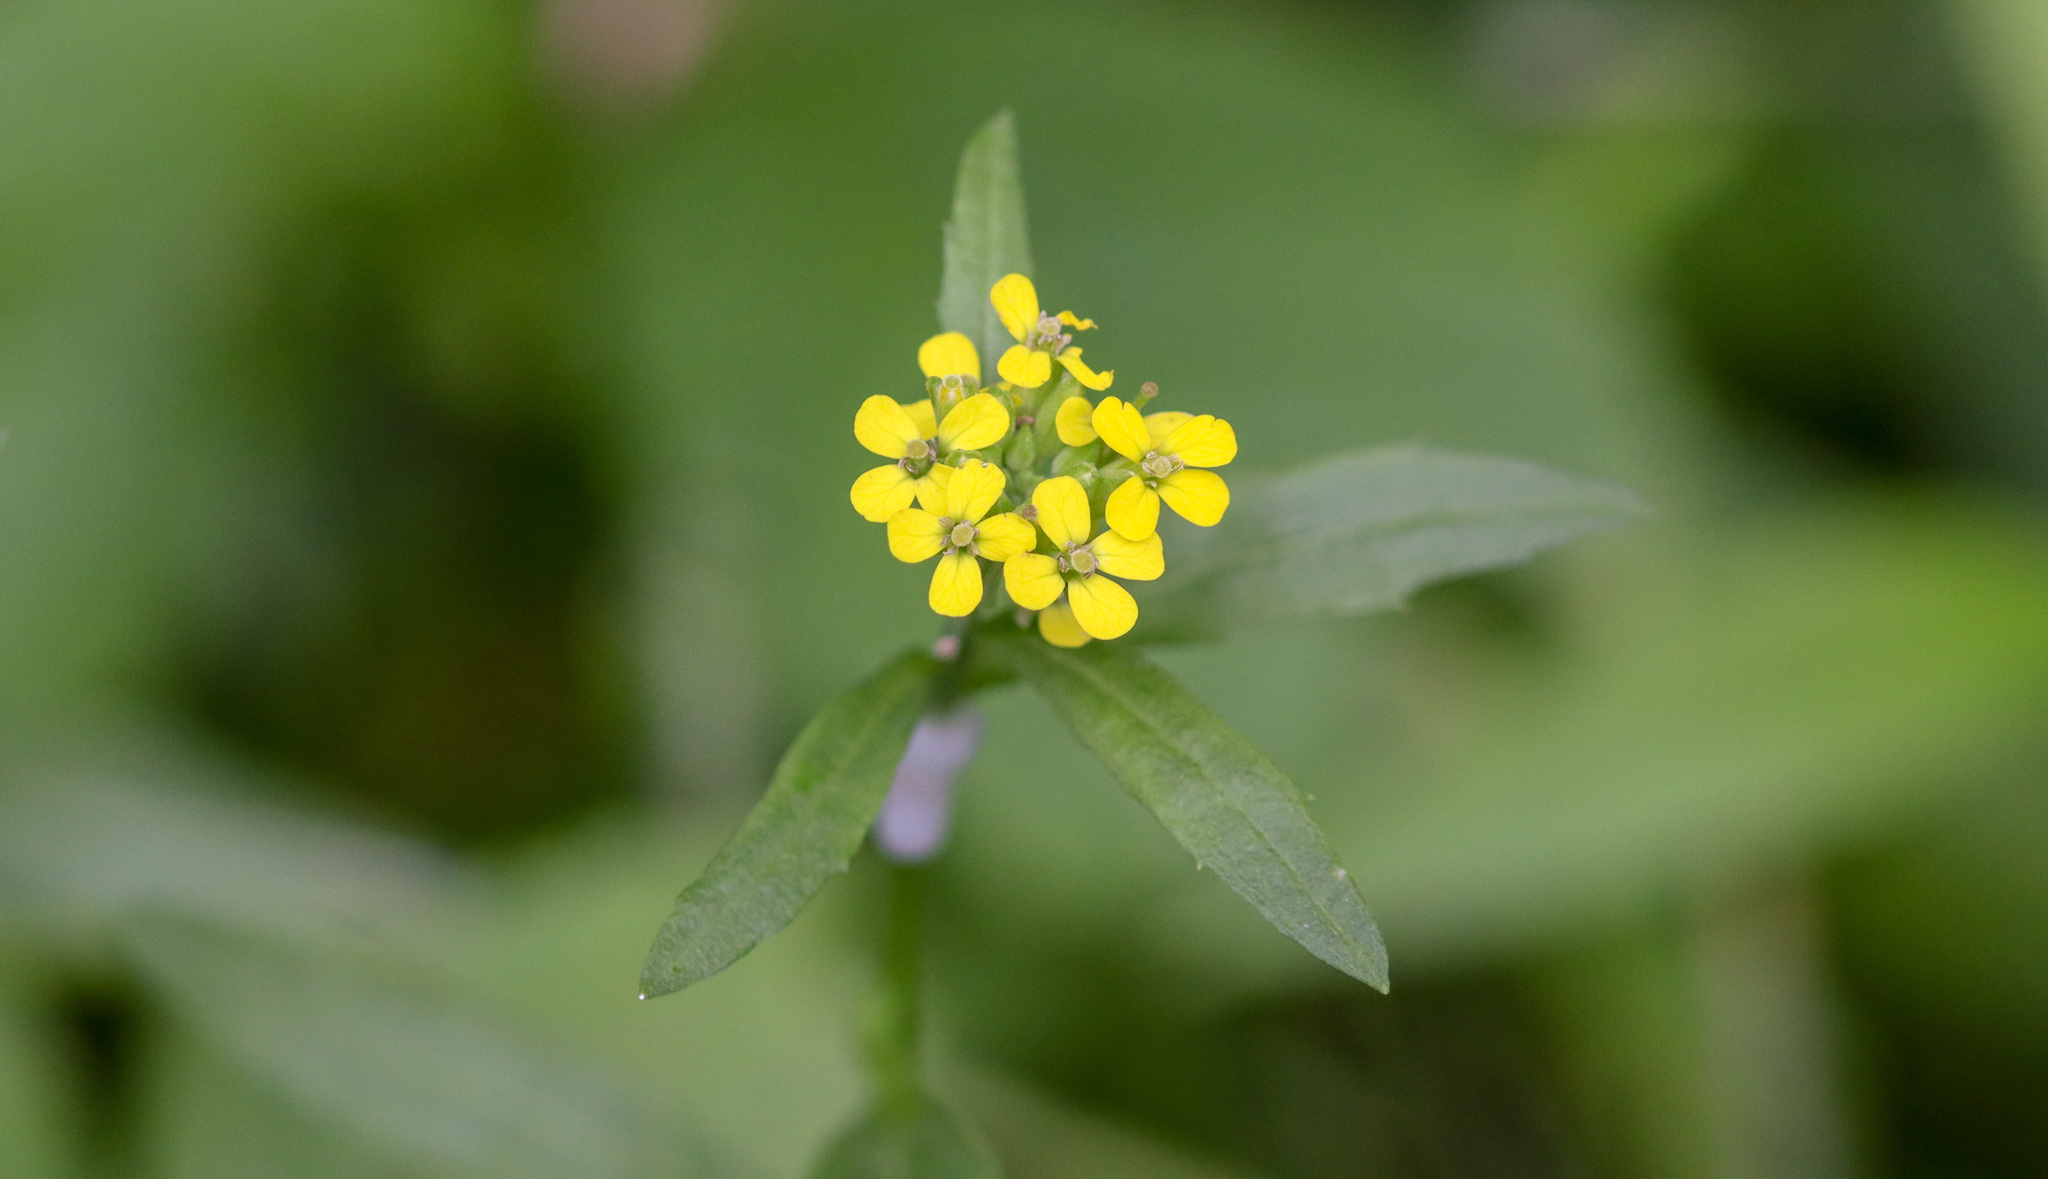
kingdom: Plantae
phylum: Tracheophyta
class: Magnoliopsida
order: Brassicales
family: Brassicaceae
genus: Erysimum
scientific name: Erysimum cheiranthoides
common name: Treacle mustard
